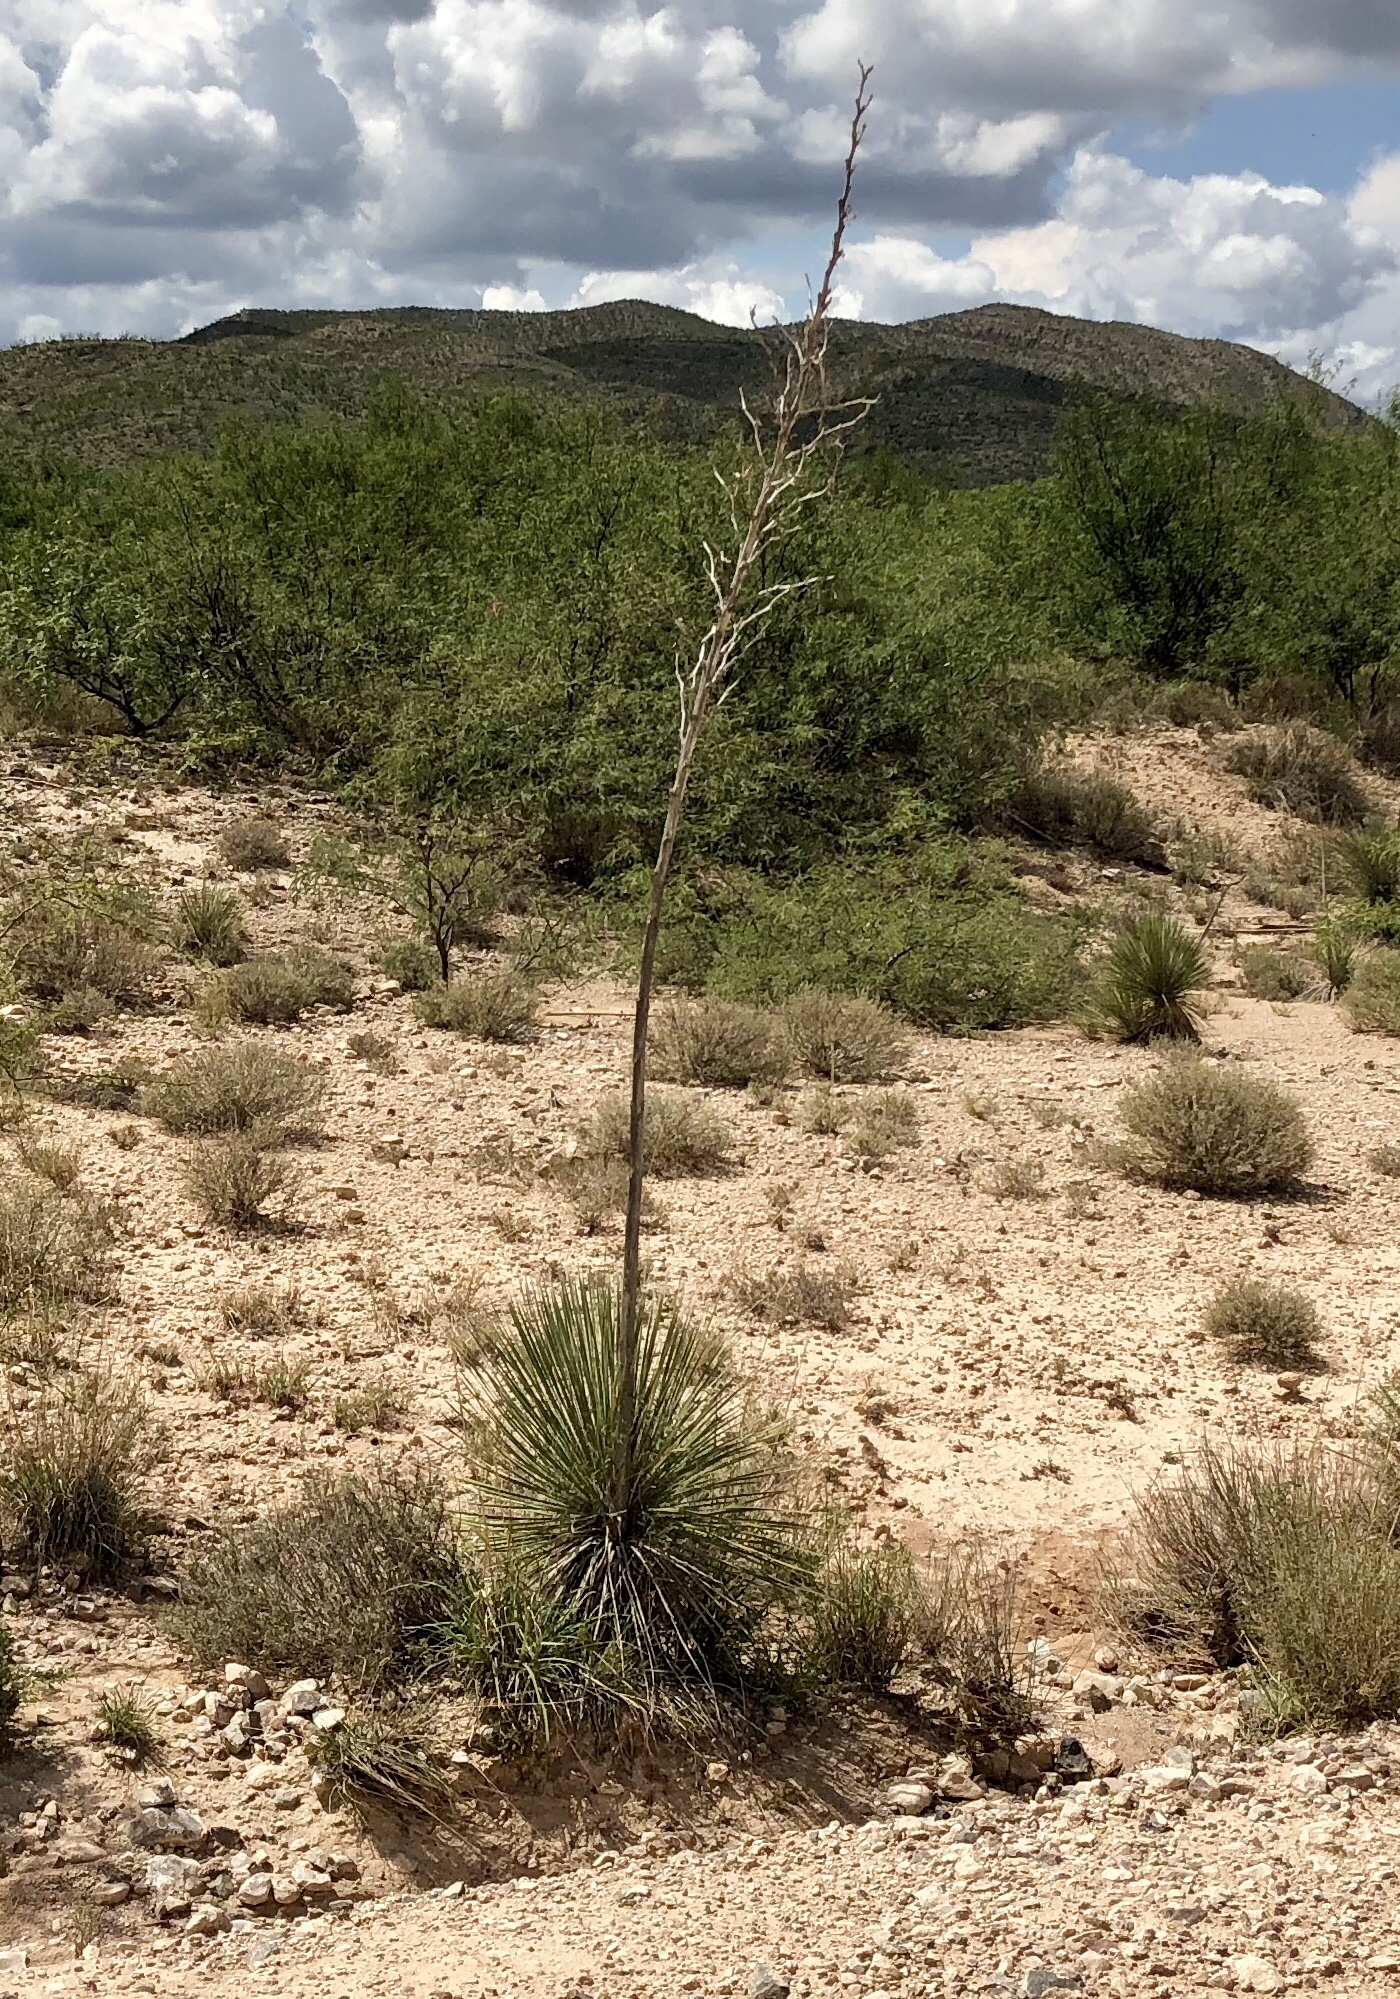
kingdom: Plantae
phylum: Tracheophyta
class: Liliopsida
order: Asparagales
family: Asparagaceae
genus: Yucca
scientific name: Yucca elata
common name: Palmella
